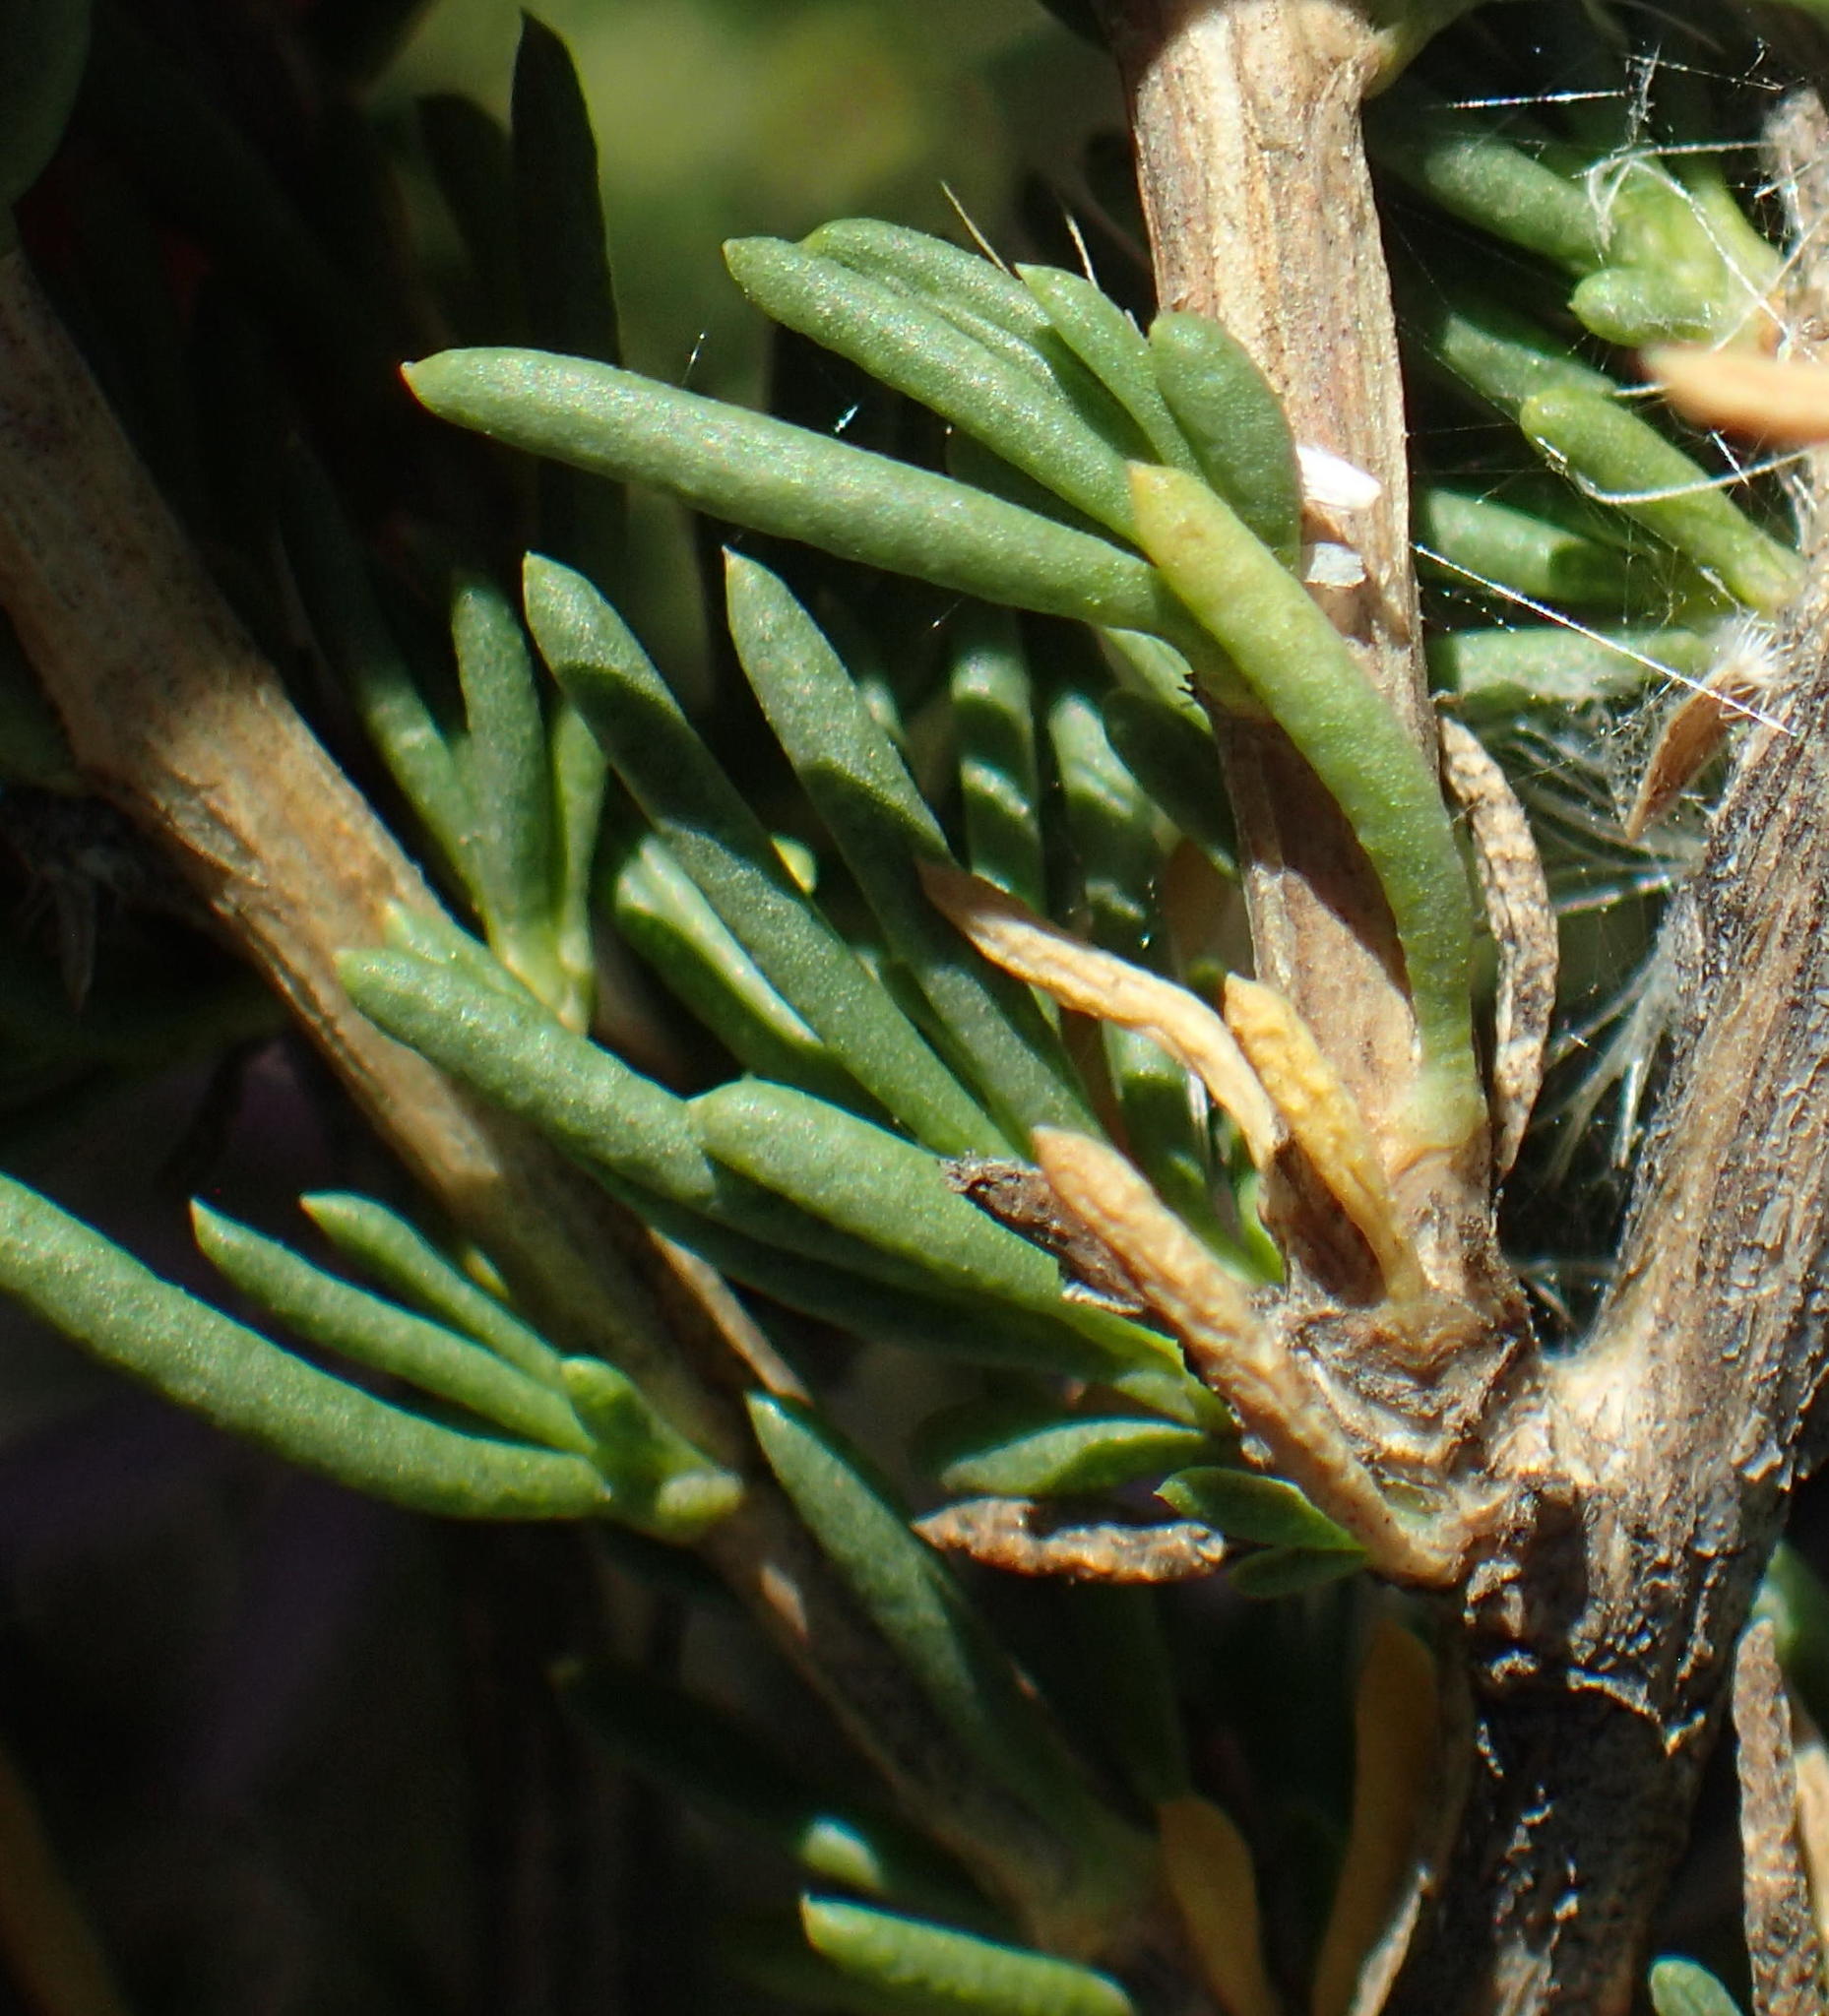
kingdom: Plantae
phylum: Tracheophyta
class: Magnoliopsida
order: Asterales
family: Asteraceae
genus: Felicia
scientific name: Felicia filifolia
